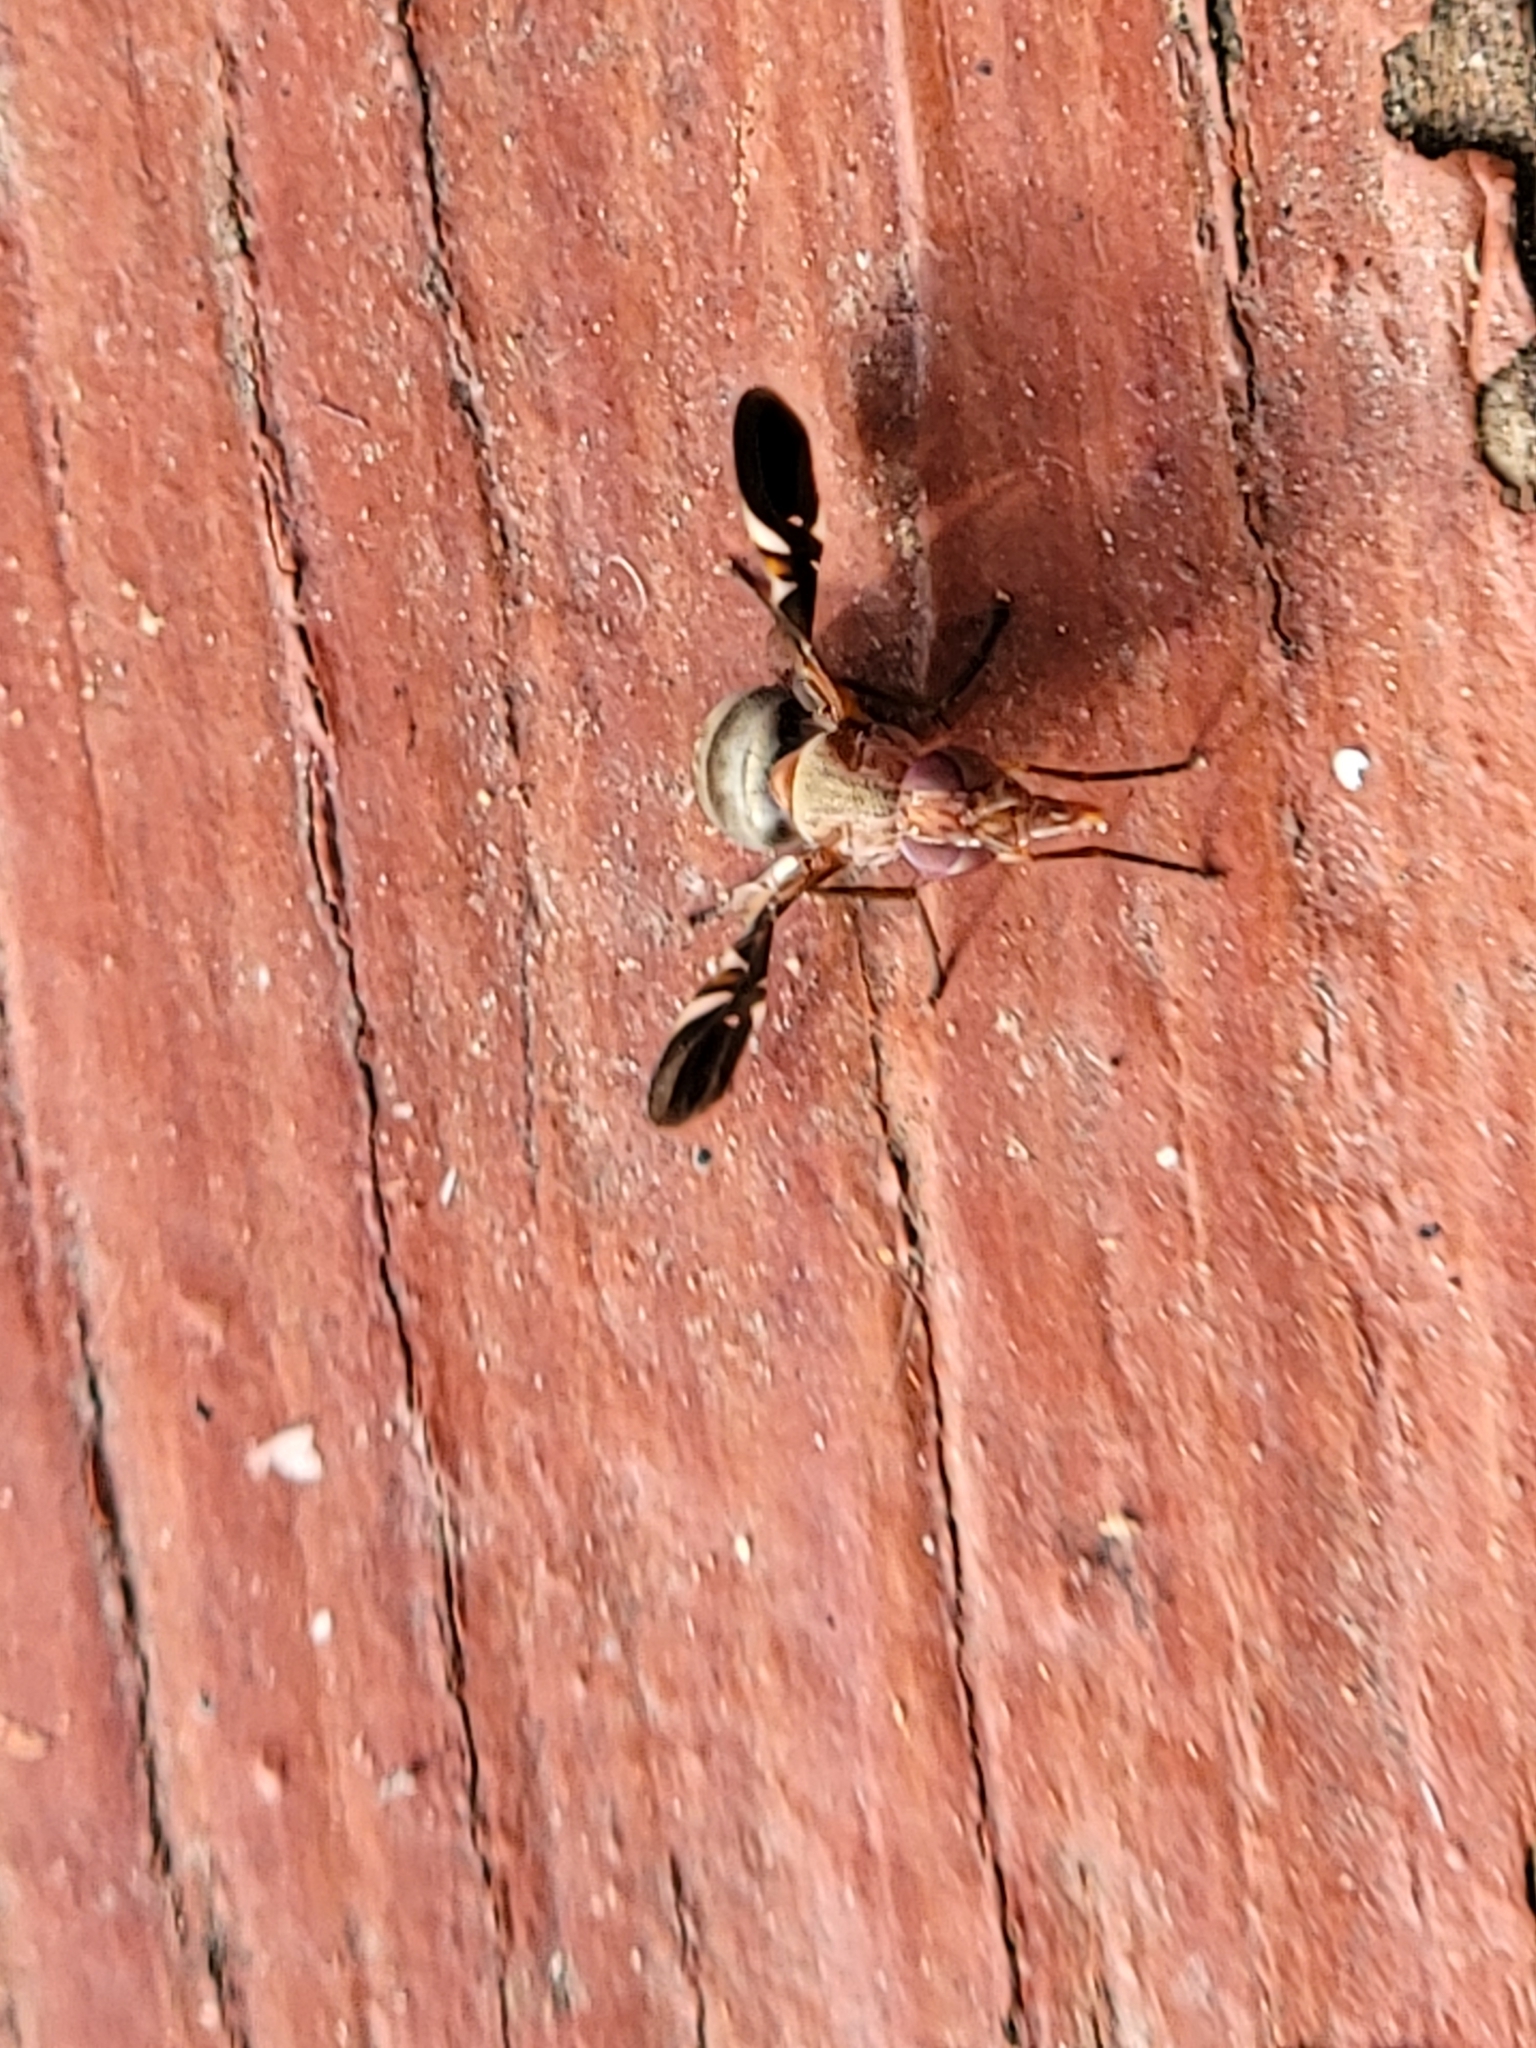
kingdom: Animalia
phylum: Arthropoda
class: Insecta
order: Diptera
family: Ulidiidae
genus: Delphinia
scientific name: Delphinia picta
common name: Common picture-winged fly
